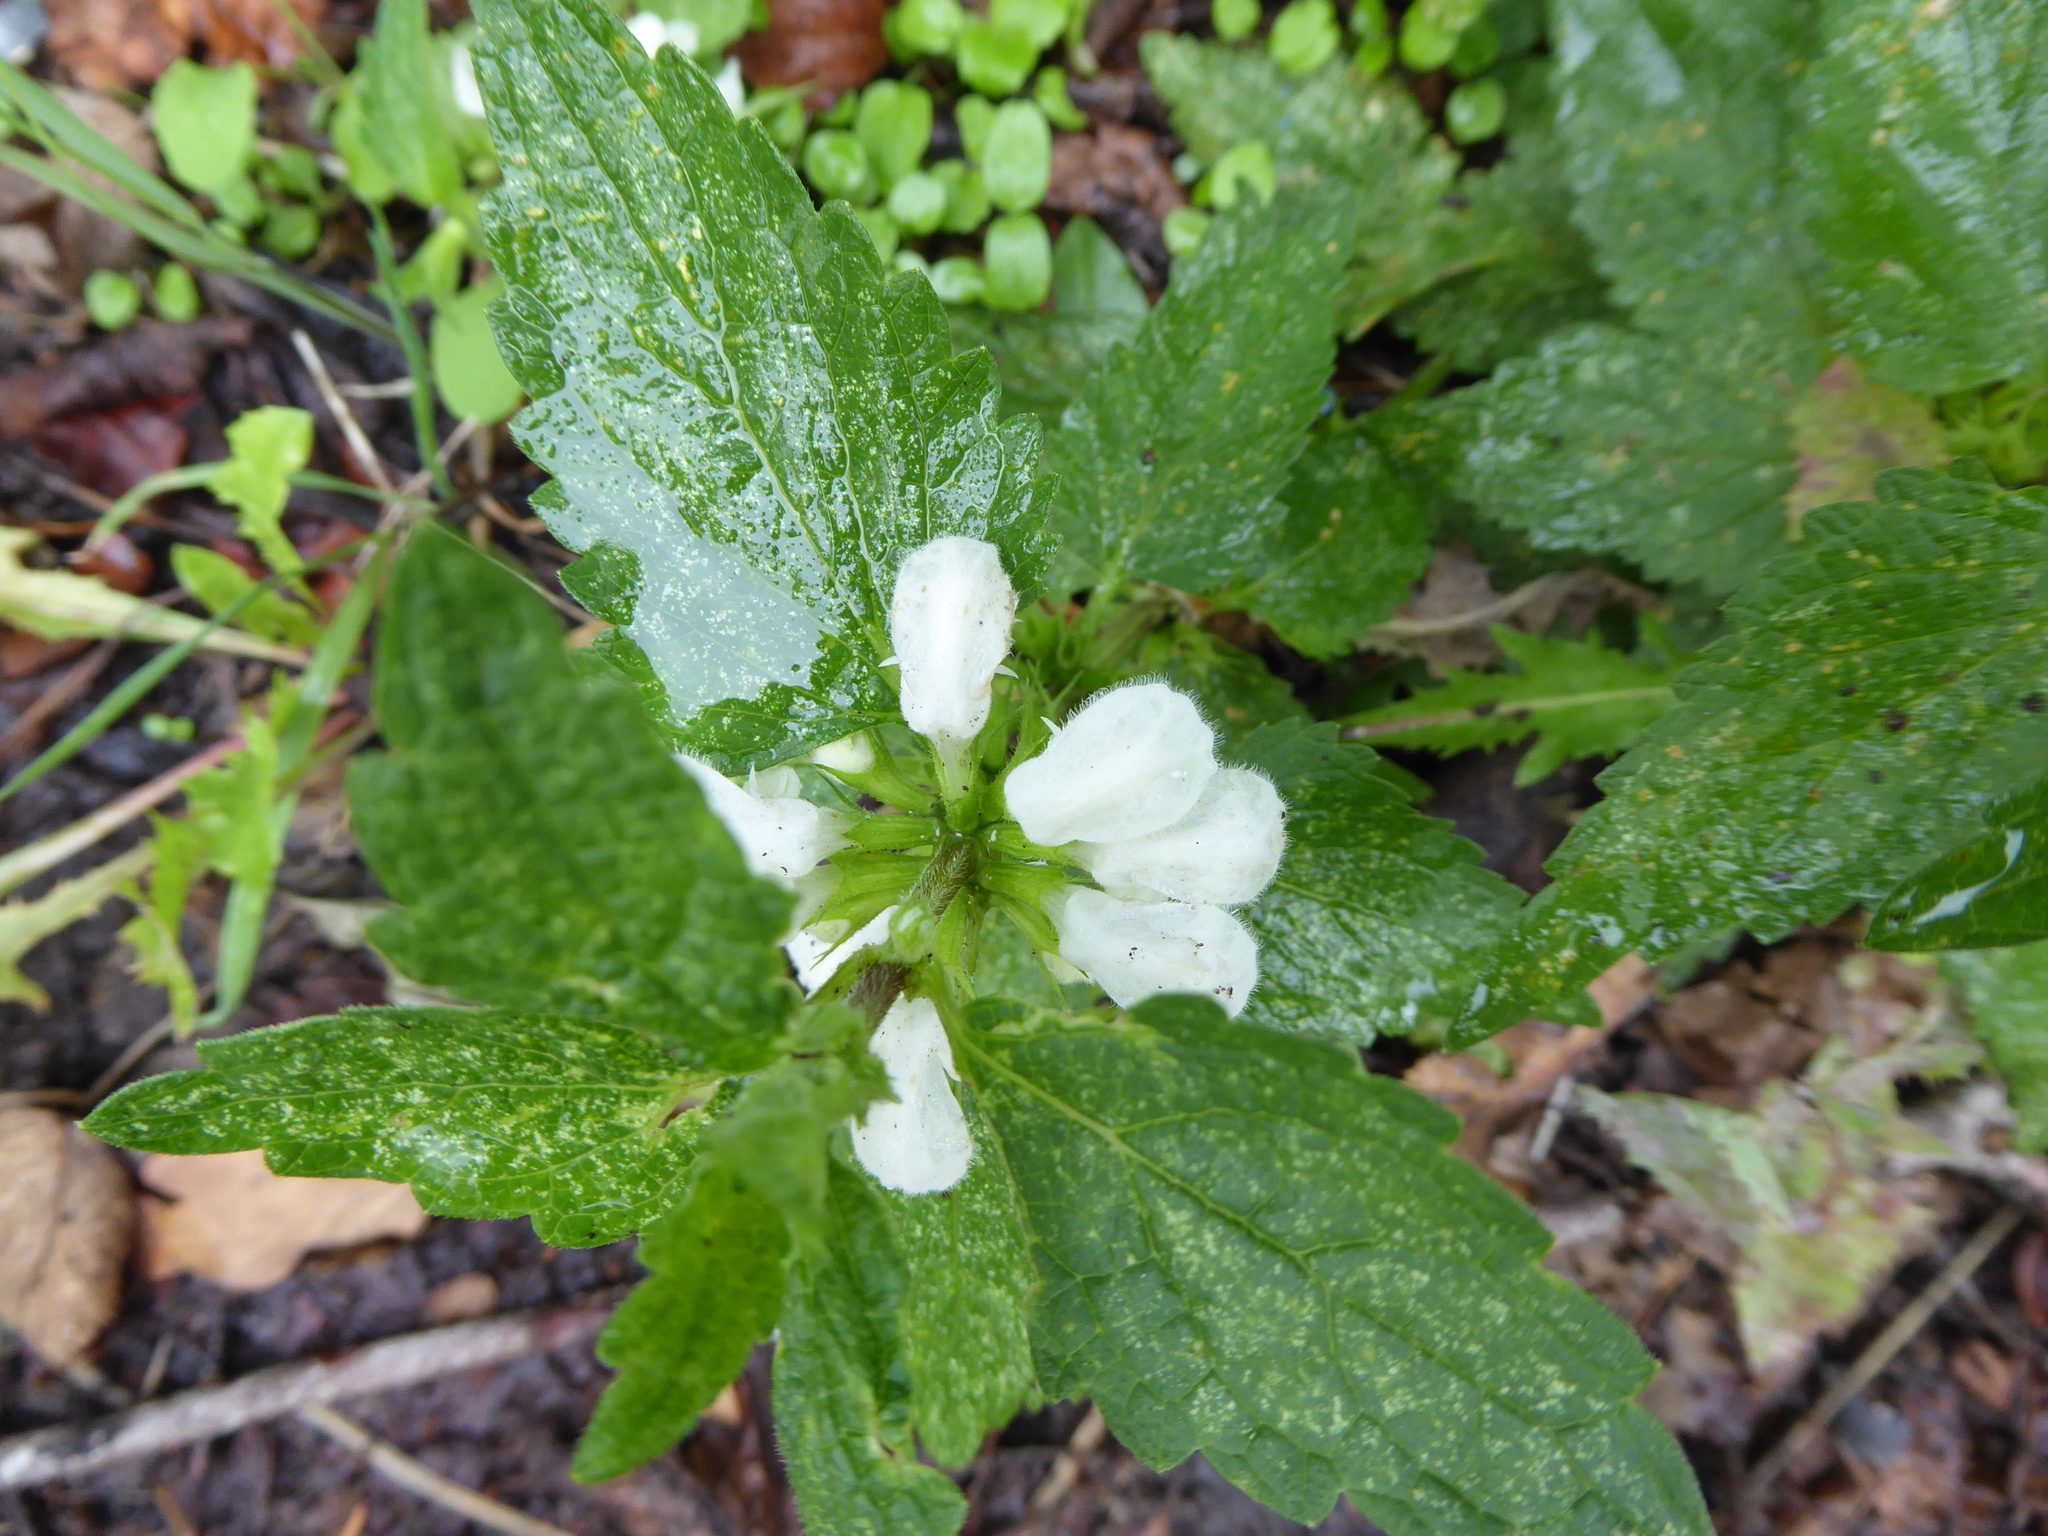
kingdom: Plantae
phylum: Tracheophyta
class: Magnoliopsida
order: Lamiales
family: Lamiaceae
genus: Lamium
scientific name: Lamium album
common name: White dead-nettle
